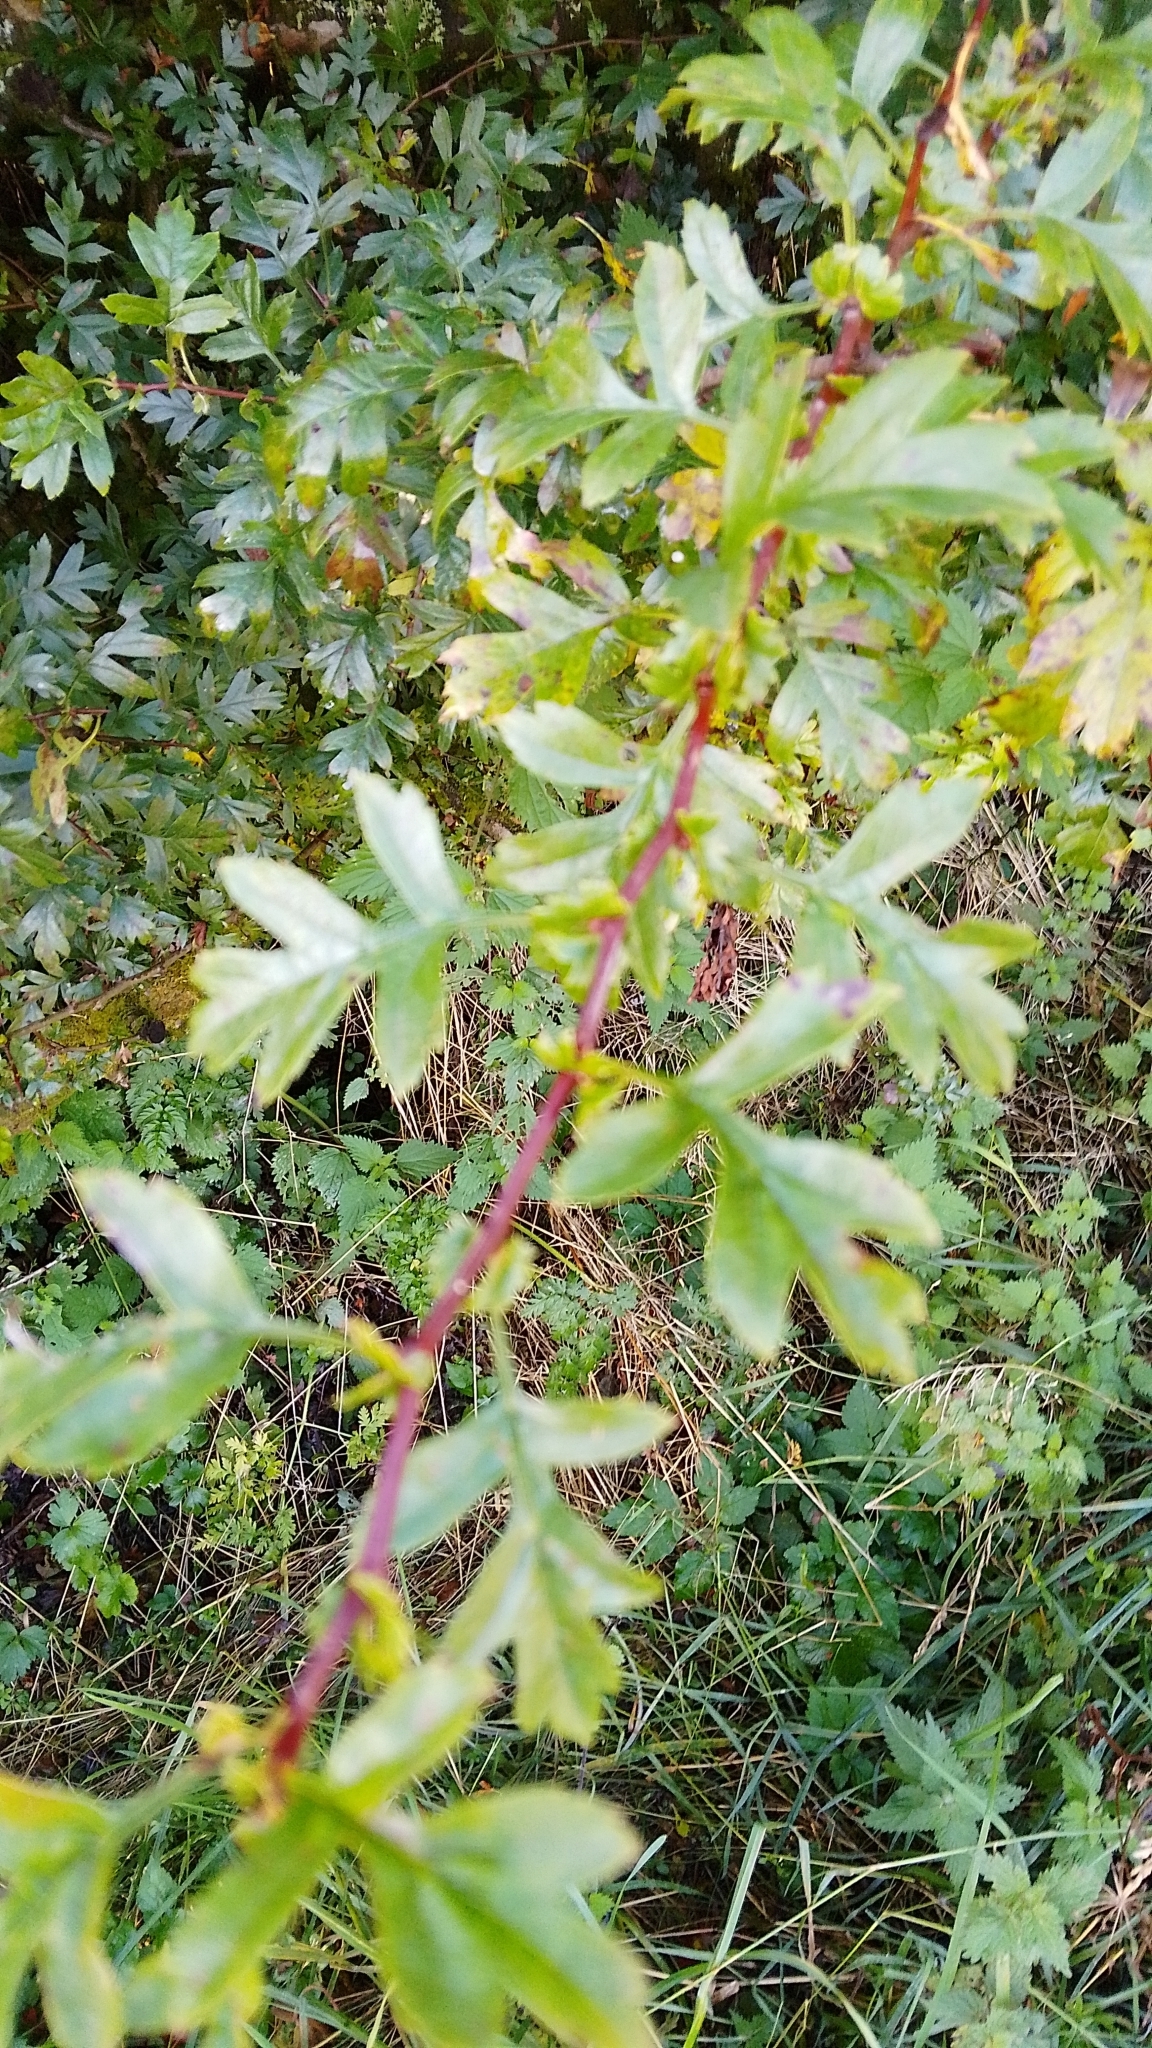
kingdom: Plantae
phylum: Tracheophyta
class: Magnoliopsida
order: Rosales
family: Rosaceae
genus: Crataegus
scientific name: Crataegus monogyna
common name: Hawthorn
